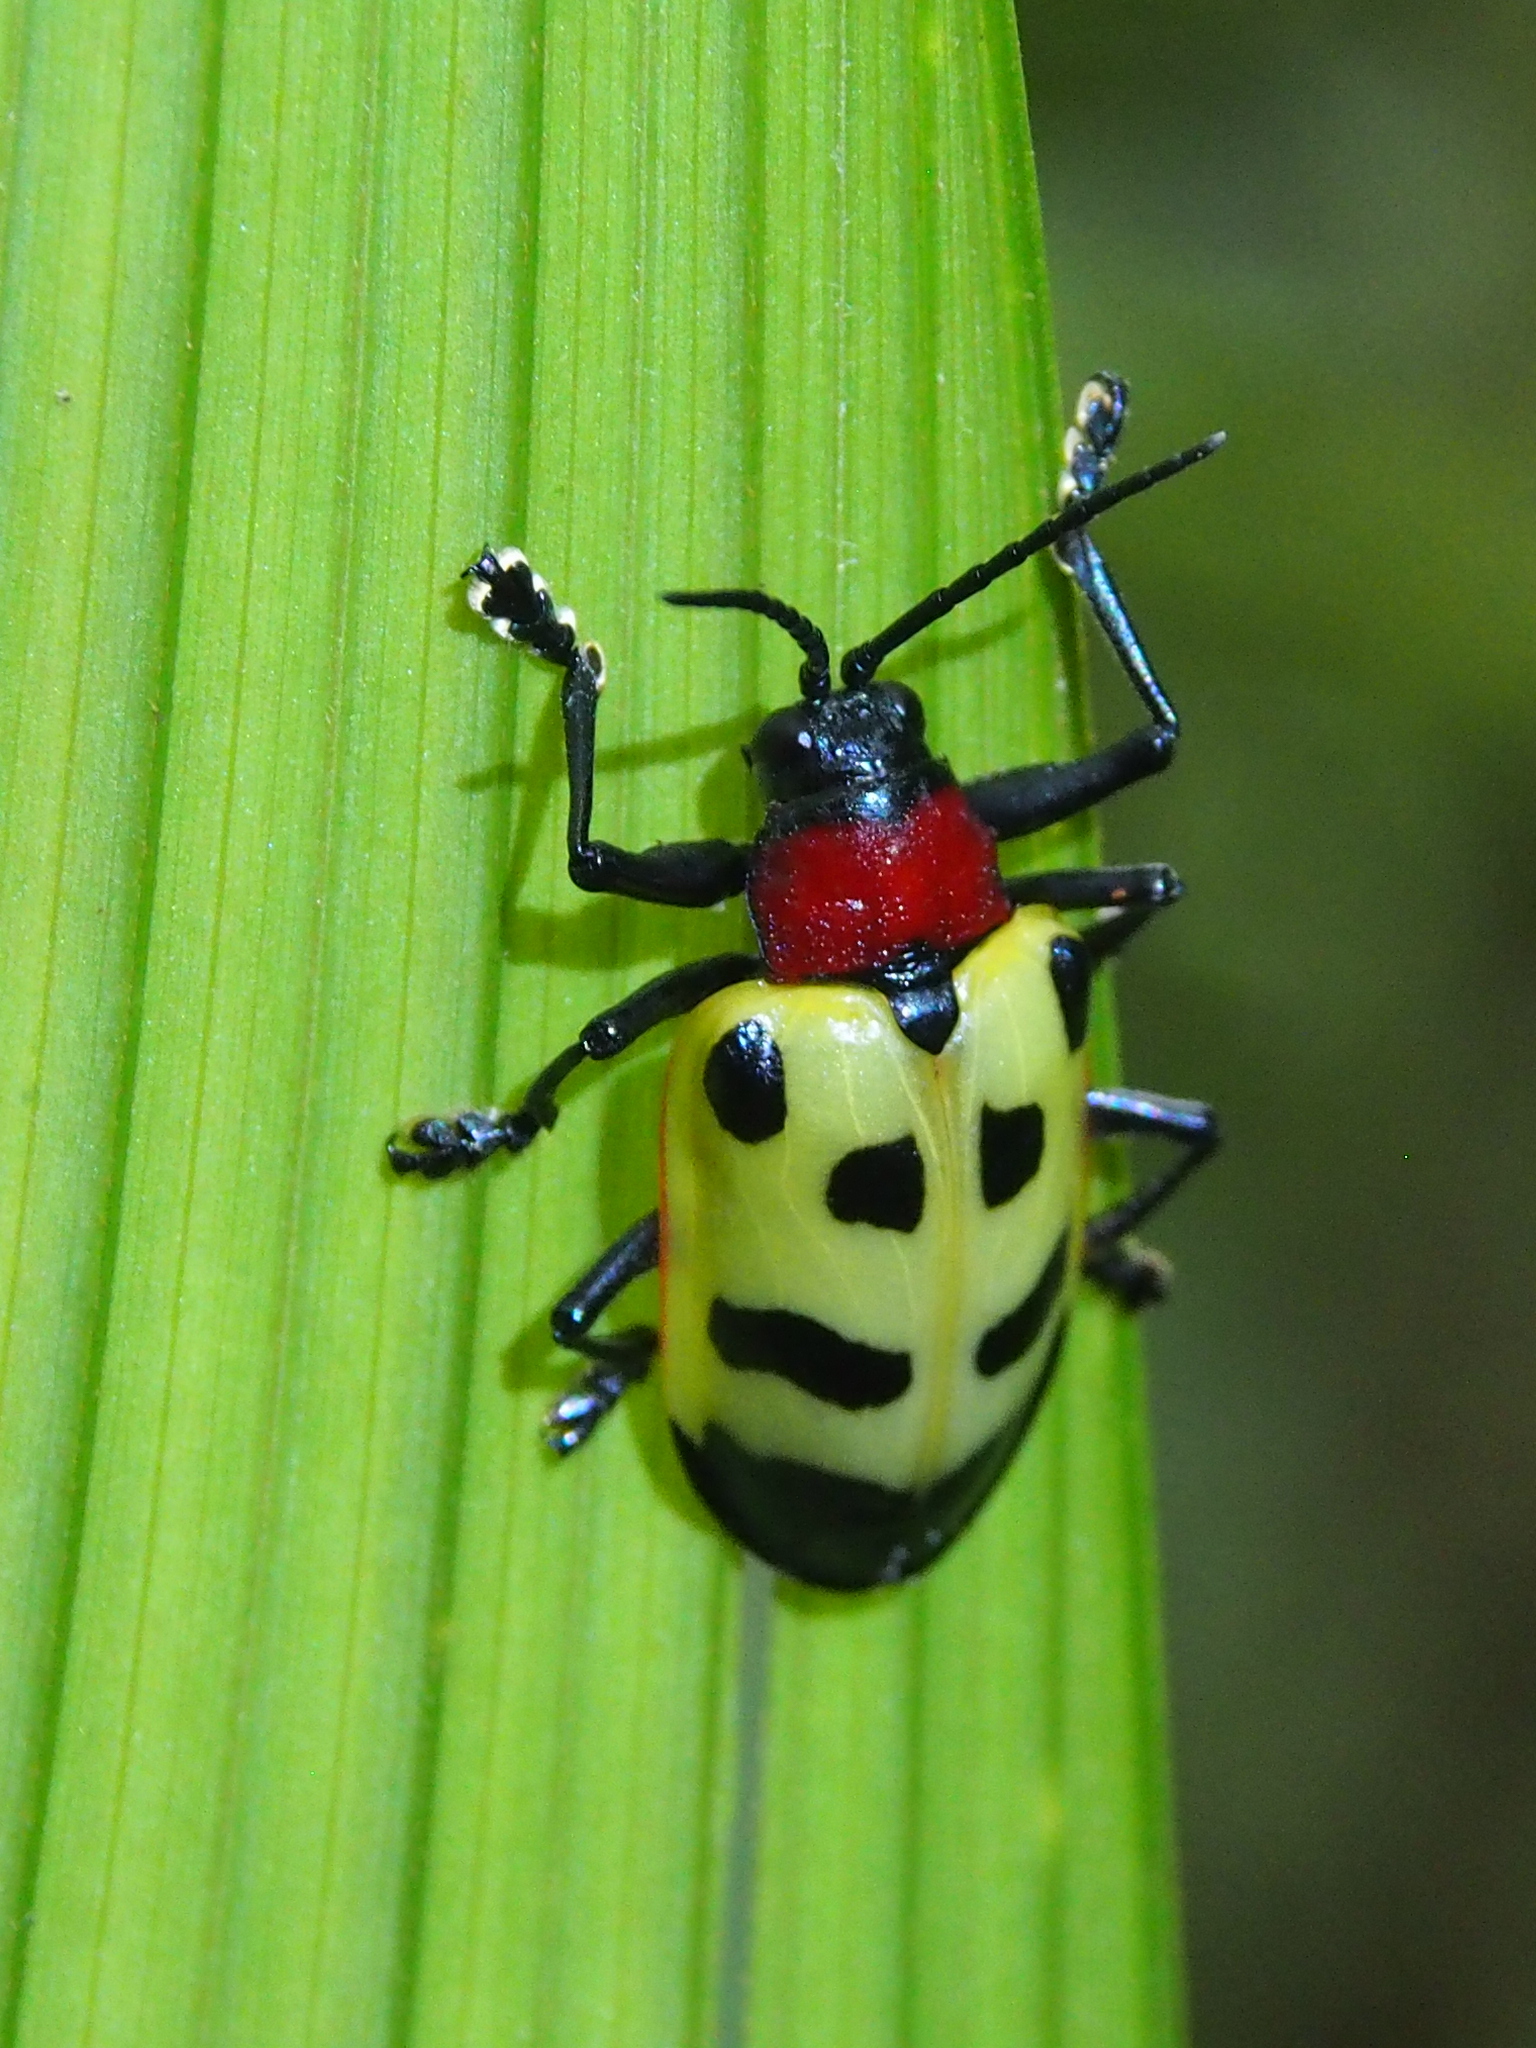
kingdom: Animalia
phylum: Arthropoda
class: Insecta
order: Coleoptera
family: Chrysomelidae
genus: Alurnus
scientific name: Alurnus ornatus
